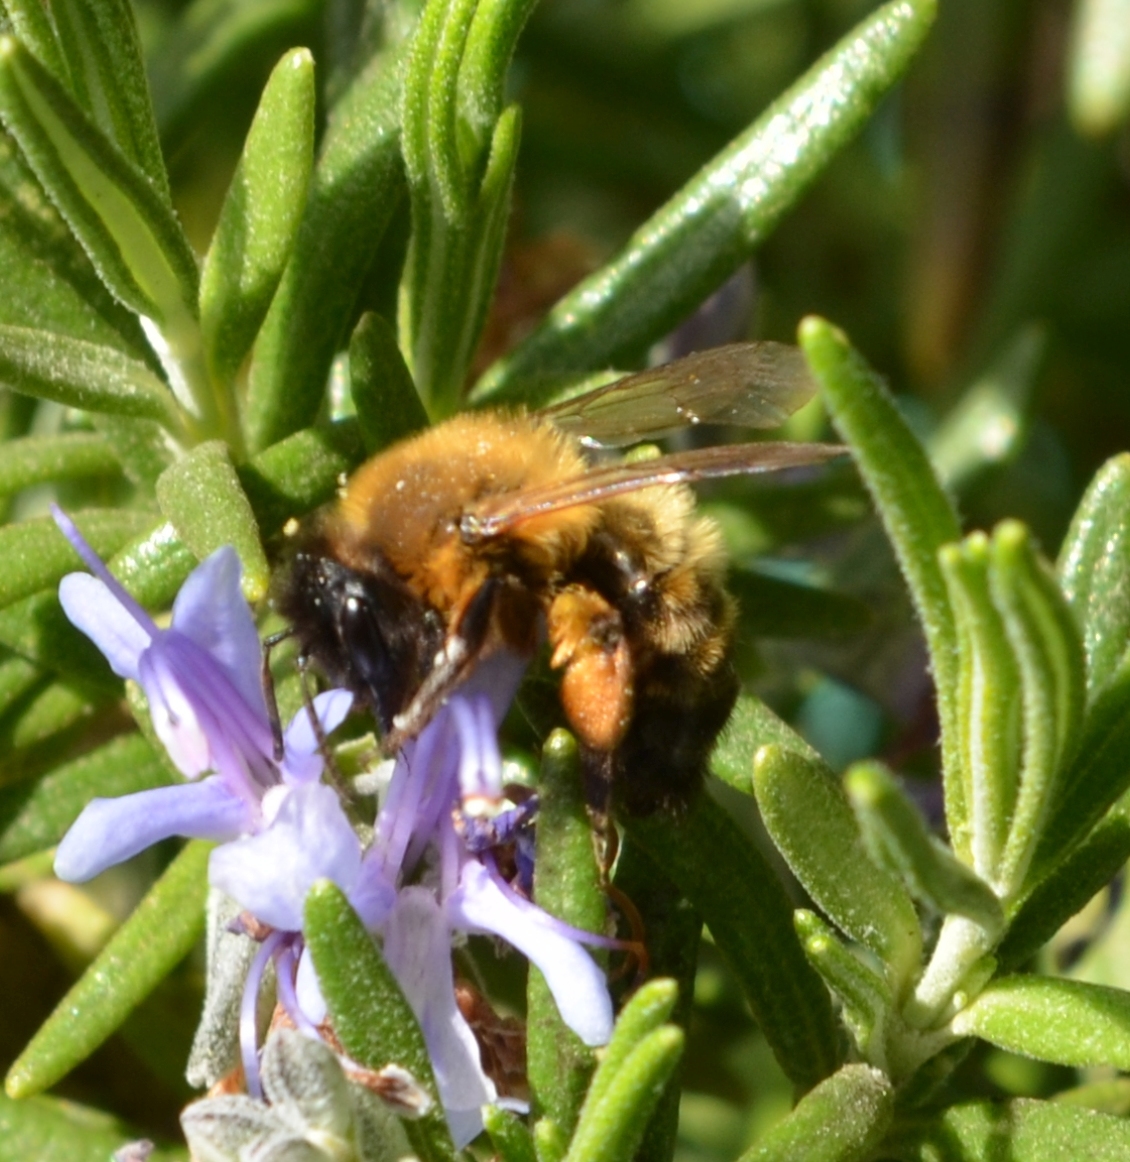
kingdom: Animalia
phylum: Arthropoda
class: Insecta
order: Hymenoptera
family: Andrenidae
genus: Andrena
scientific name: Andrena nigroaenea
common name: Buffish mining bee
